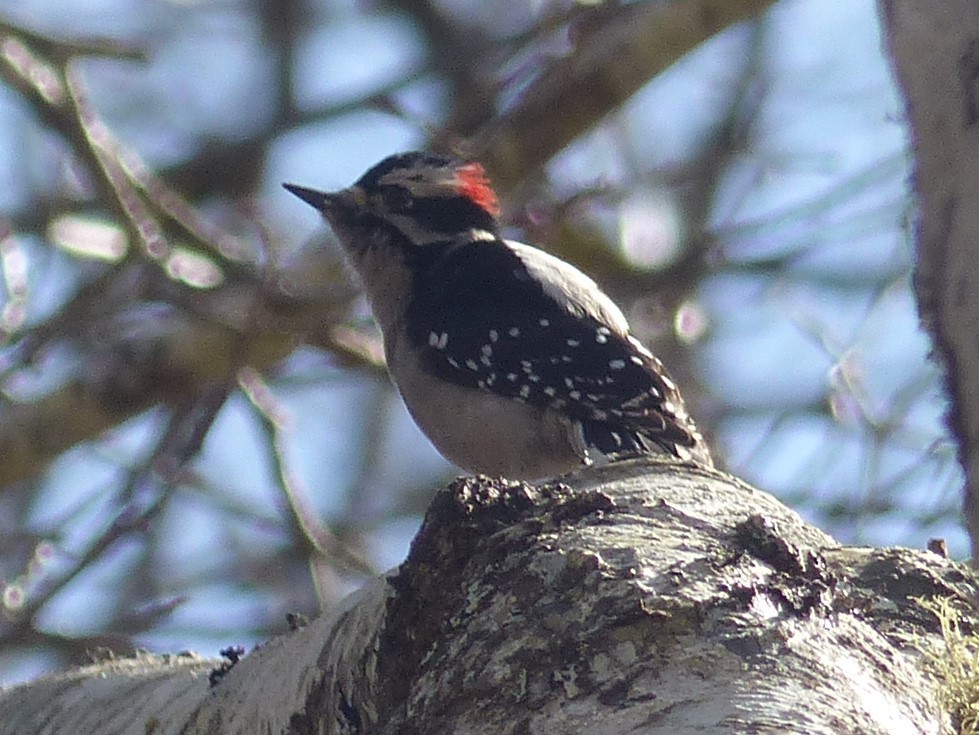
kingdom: Animalia
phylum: Chordata
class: Aves
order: Piciformes
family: Picidae
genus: Dryobates
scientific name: Dryobates pubescens
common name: Downy woodpecker
